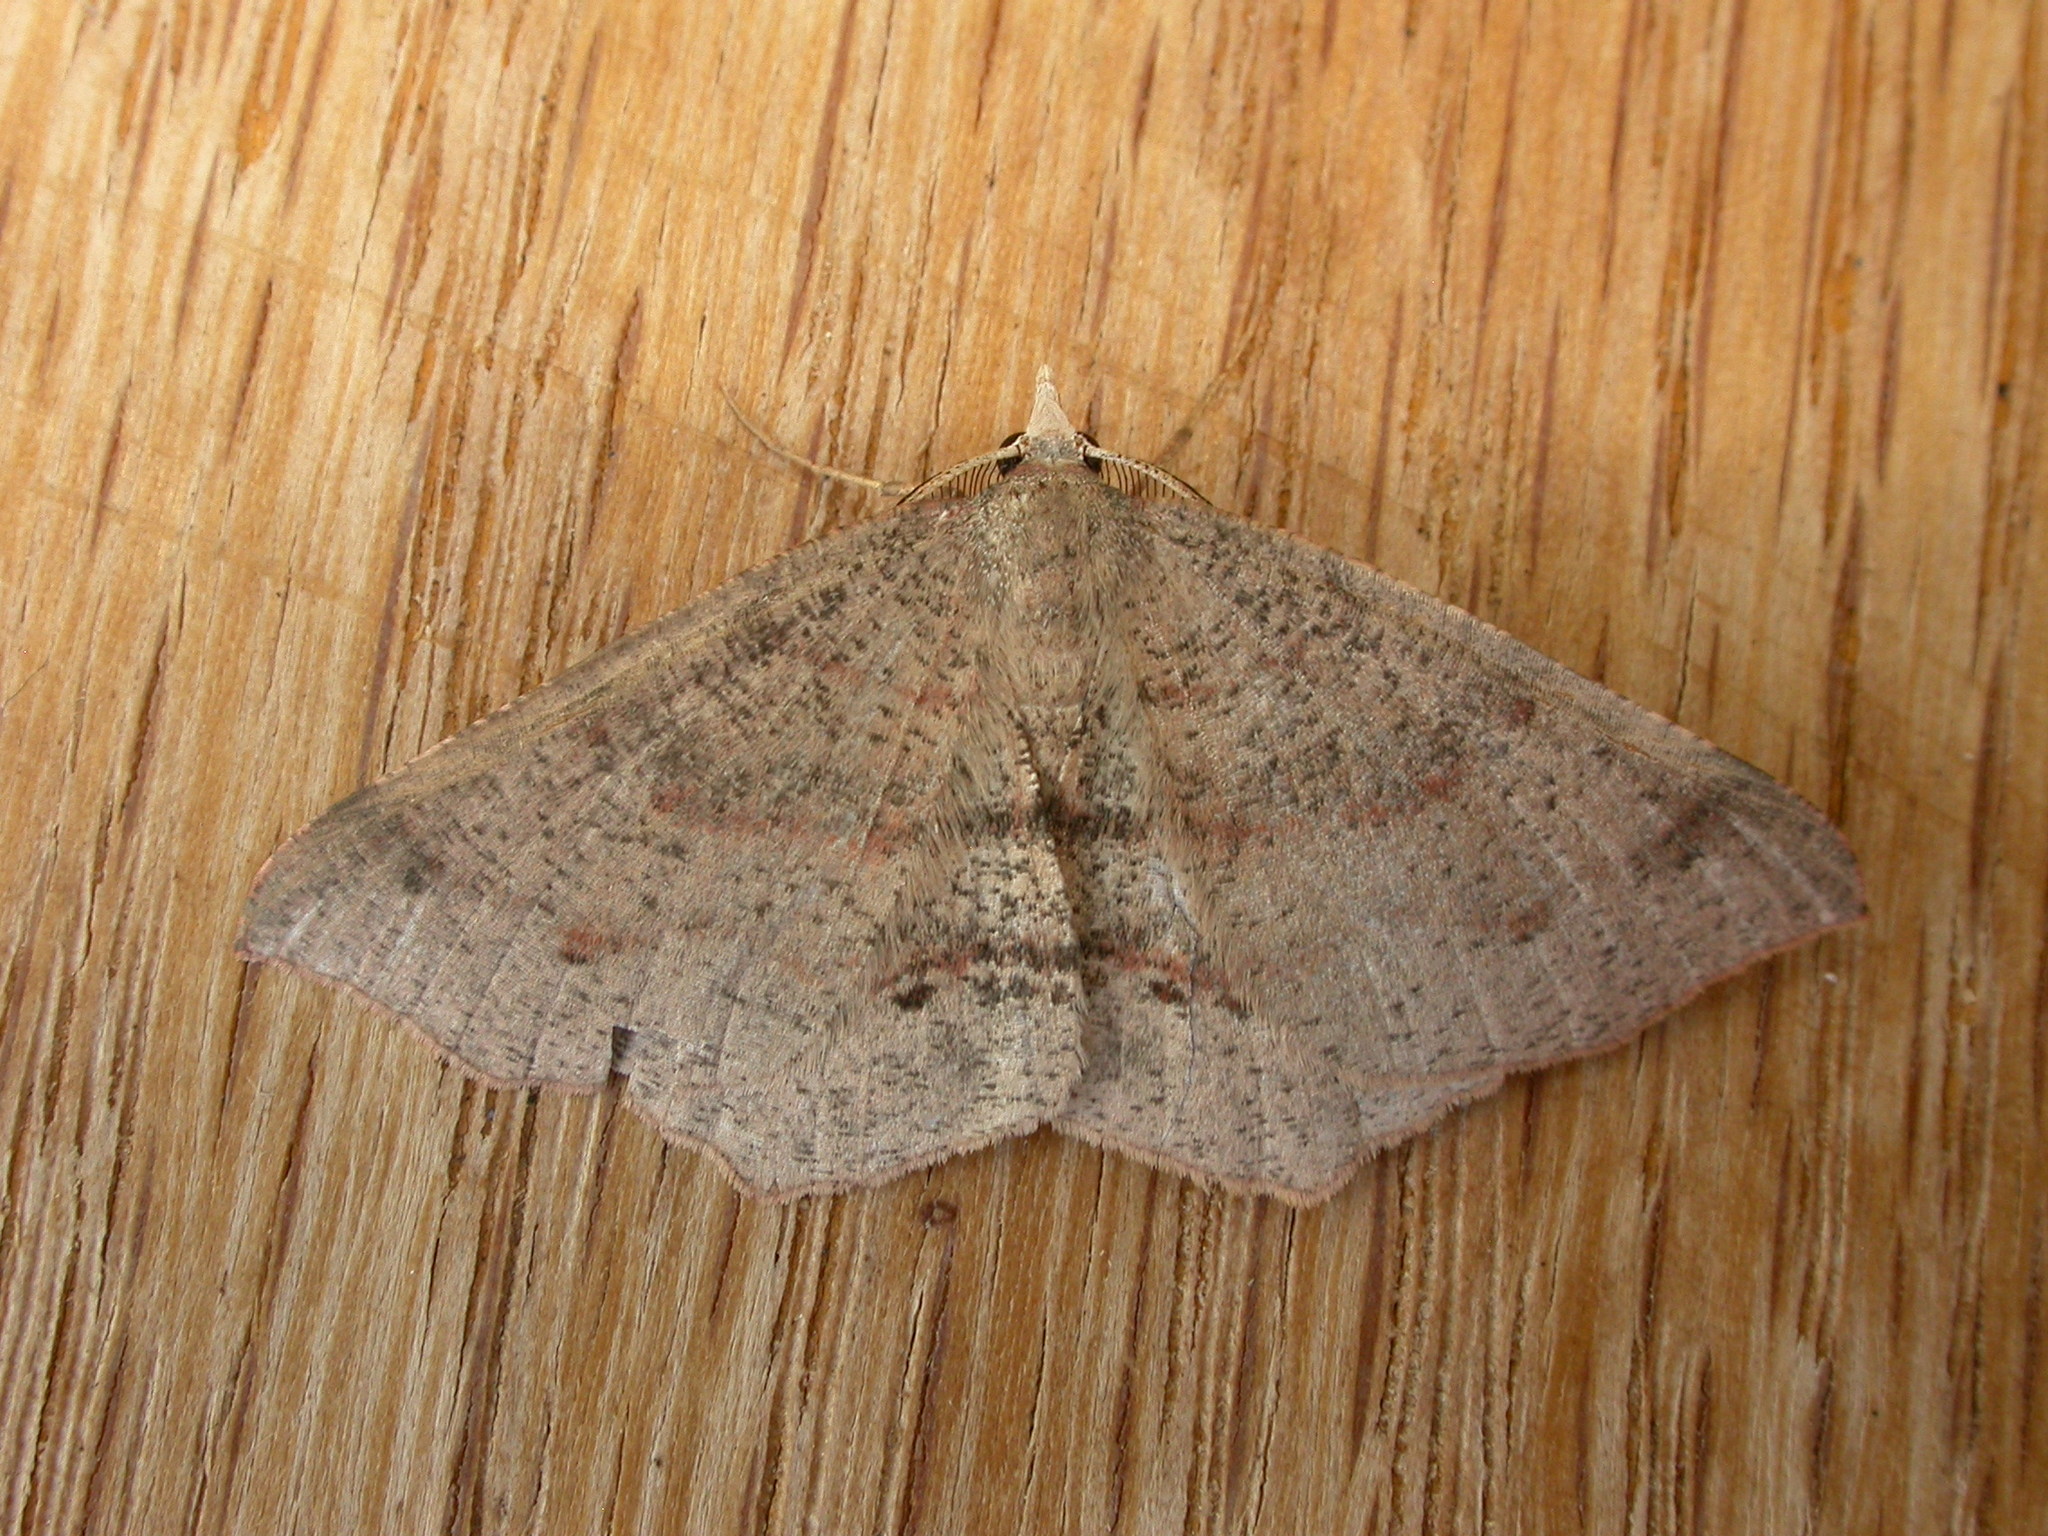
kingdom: Animalia
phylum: Arthropoda
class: Insecta
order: Lepidoptera
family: Geometridae
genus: Rhinodia
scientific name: Rhinodia rostraria
